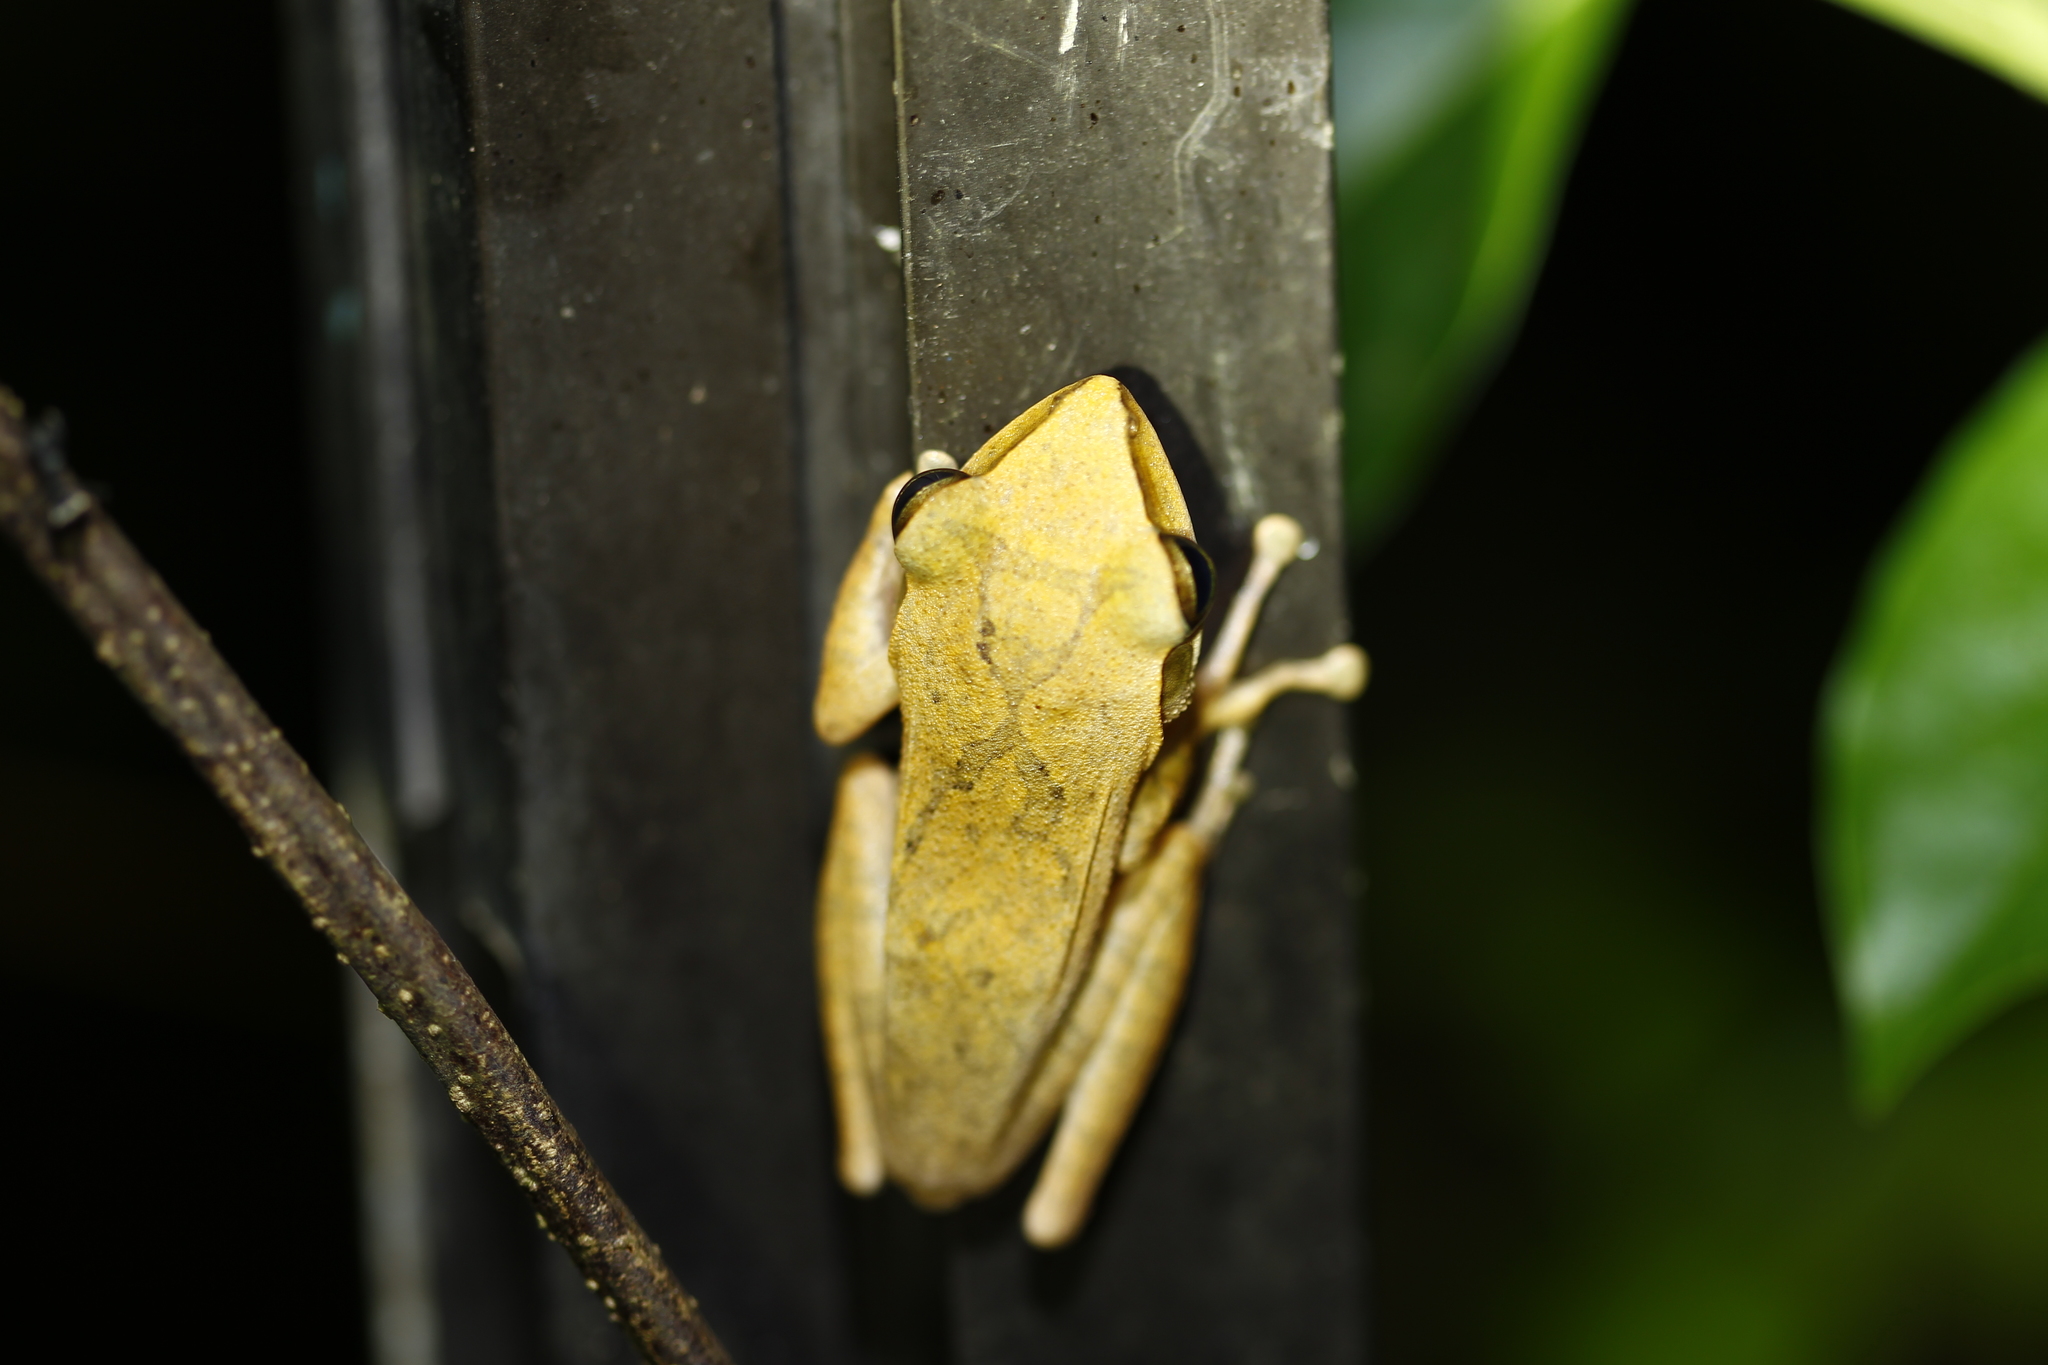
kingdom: Animalia
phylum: Chordata
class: Amphibia
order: Anura
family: Rhacophoridae
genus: Polypedates
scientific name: Polypedates megacephalus
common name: Hong kong whipping frog
